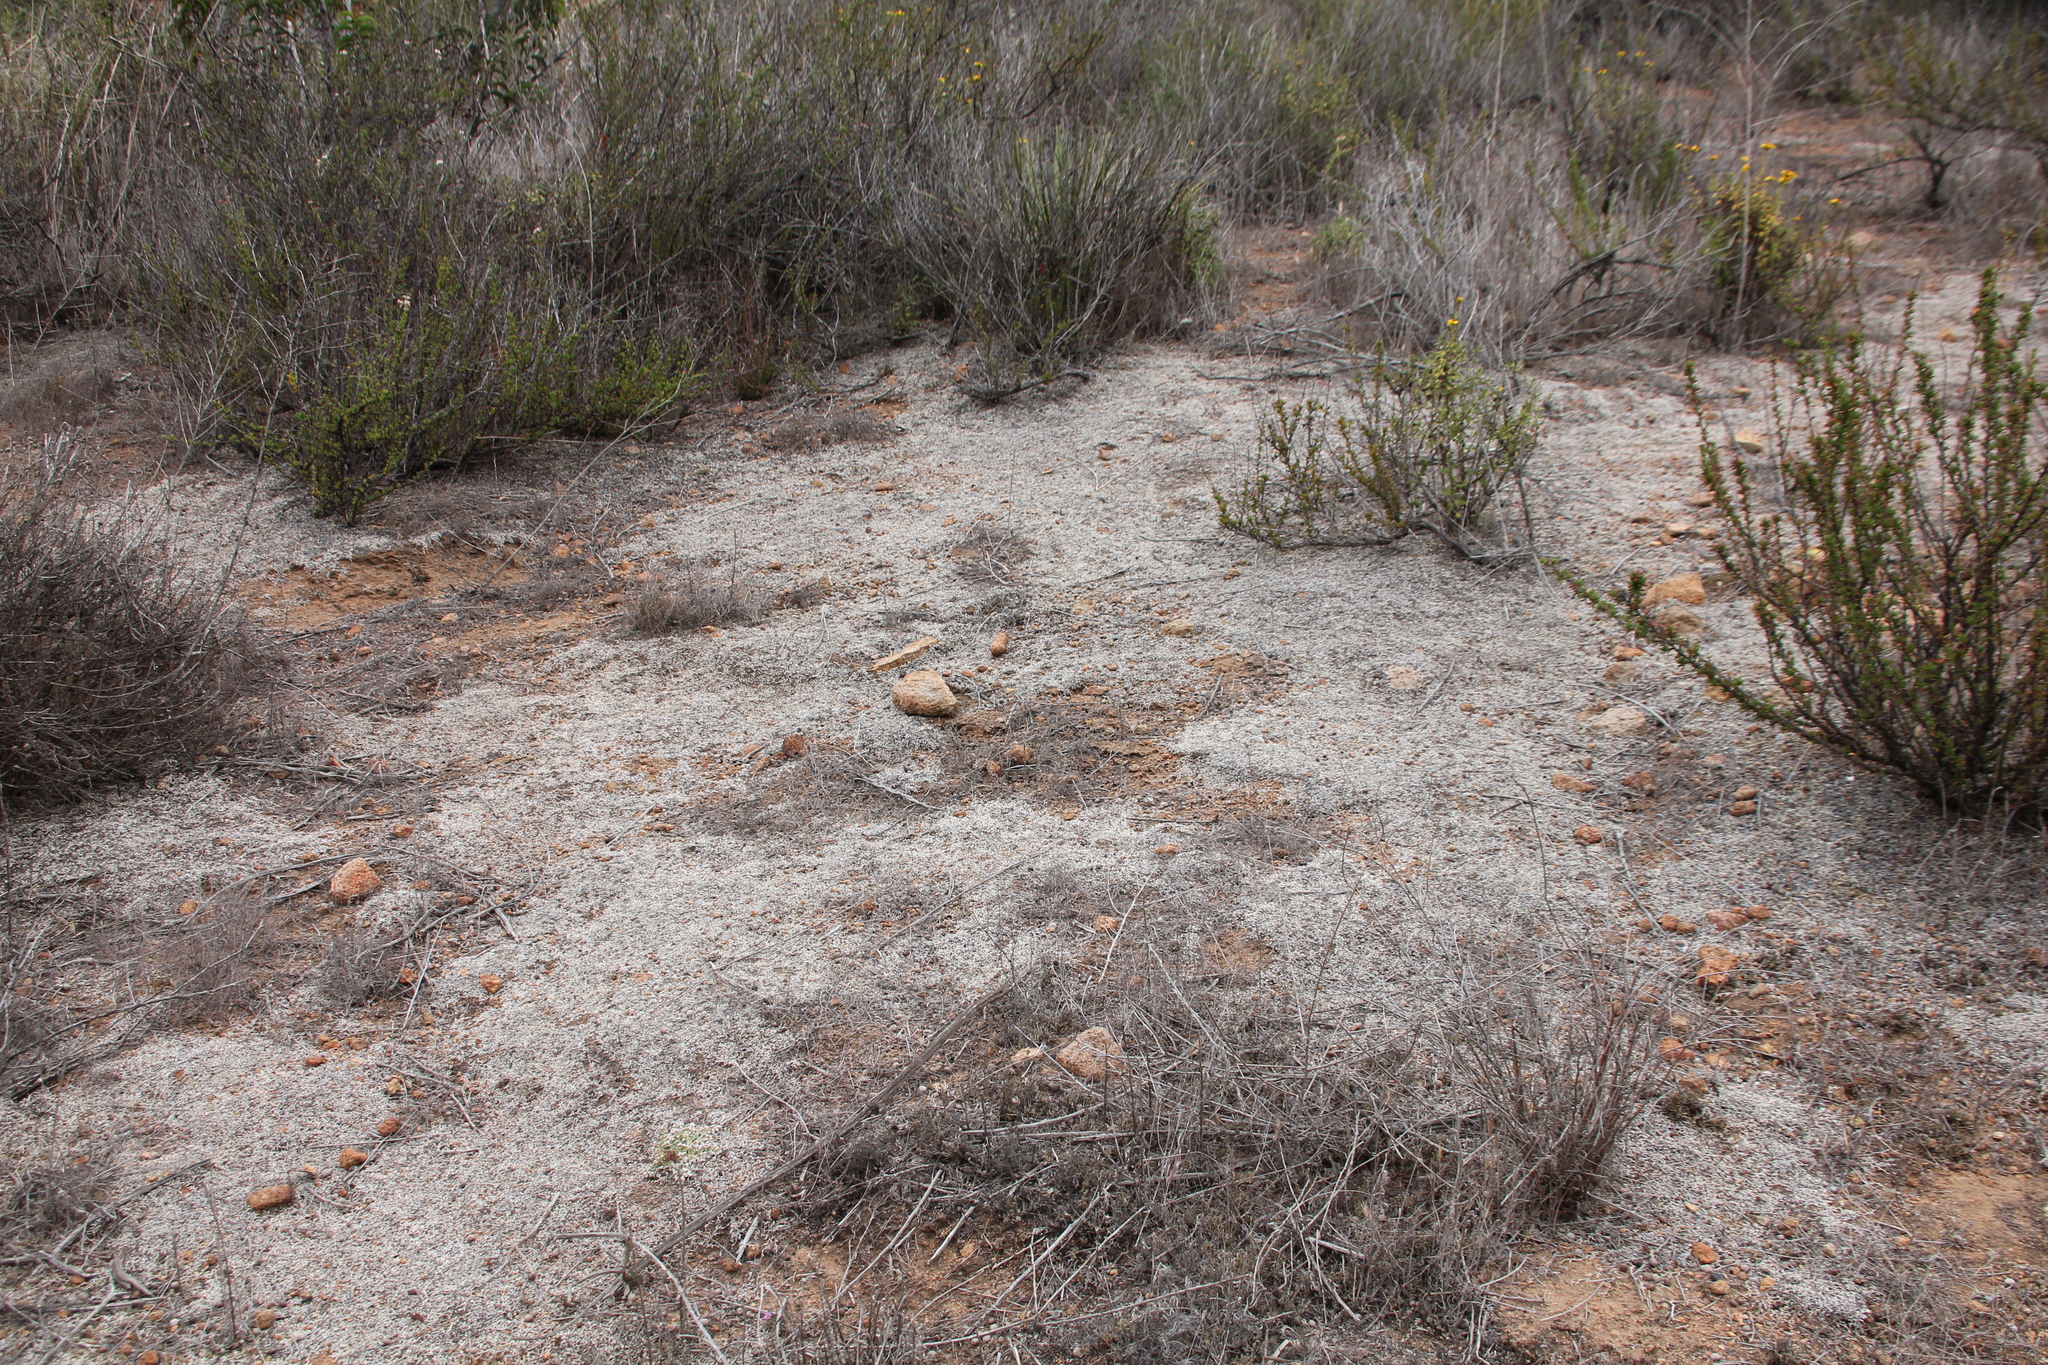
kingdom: Plantae
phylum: Tracheophyta
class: Lycopodiopsida
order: Selaginellales
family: Selaginellaceae
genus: Selaginella
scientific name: Selaginella cinerascens
